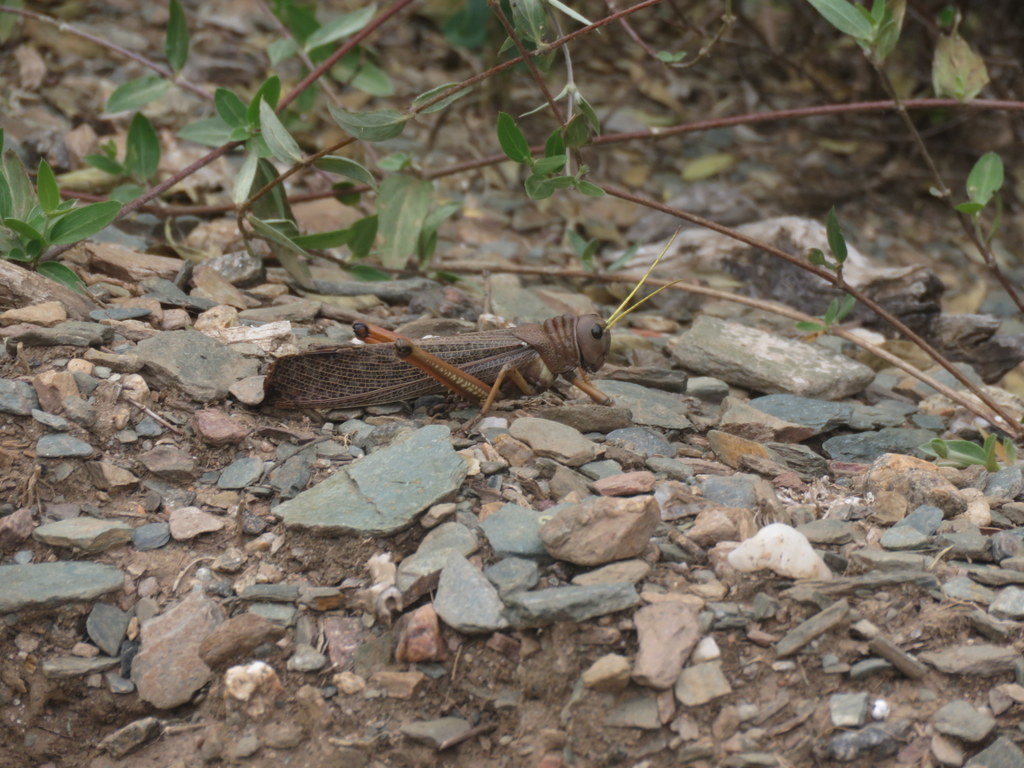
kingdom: Animalia
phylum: Arthropoda
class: Insecta
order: Orthoptera
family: Romaleidae
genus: Tropidacris
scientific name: Tropidacris collaris
